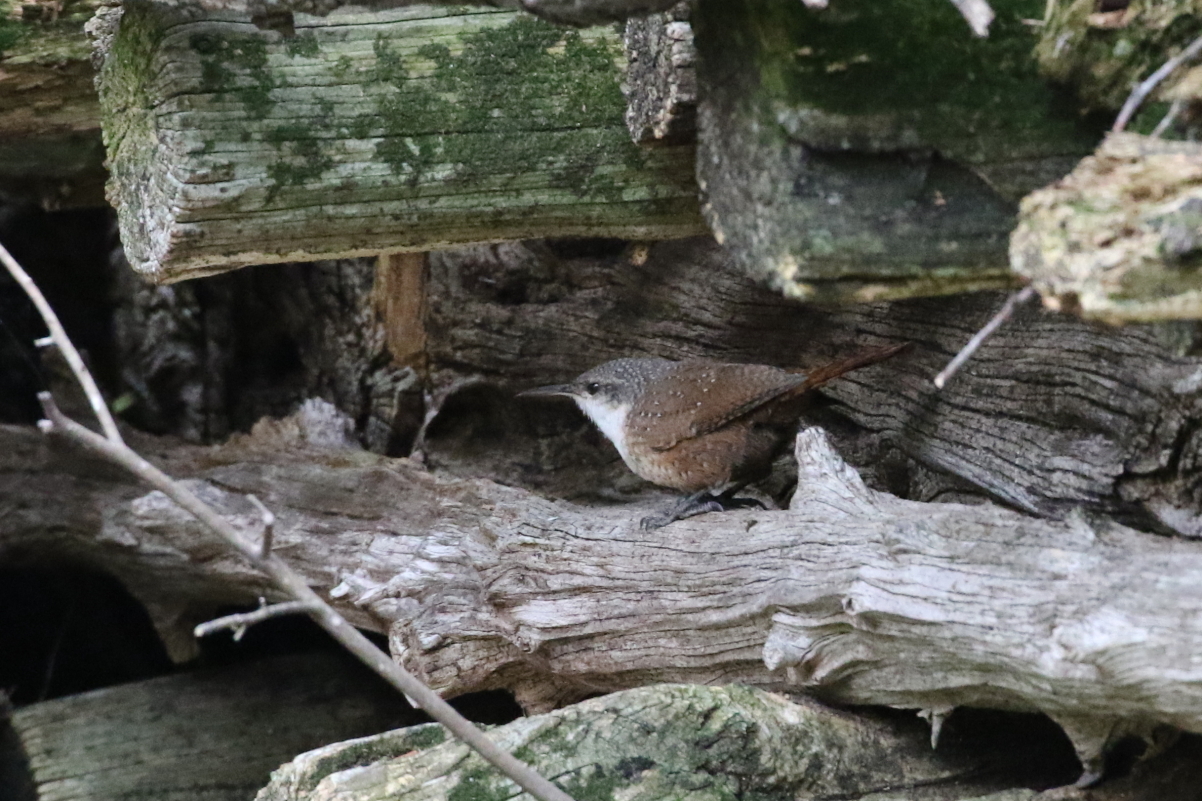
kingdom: Animalia
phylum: Chordata
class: Aves
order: Passeriformes
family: Troglodytidae
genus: Catherpes
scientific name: Catherpes mexicanus
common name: Canyon wren
